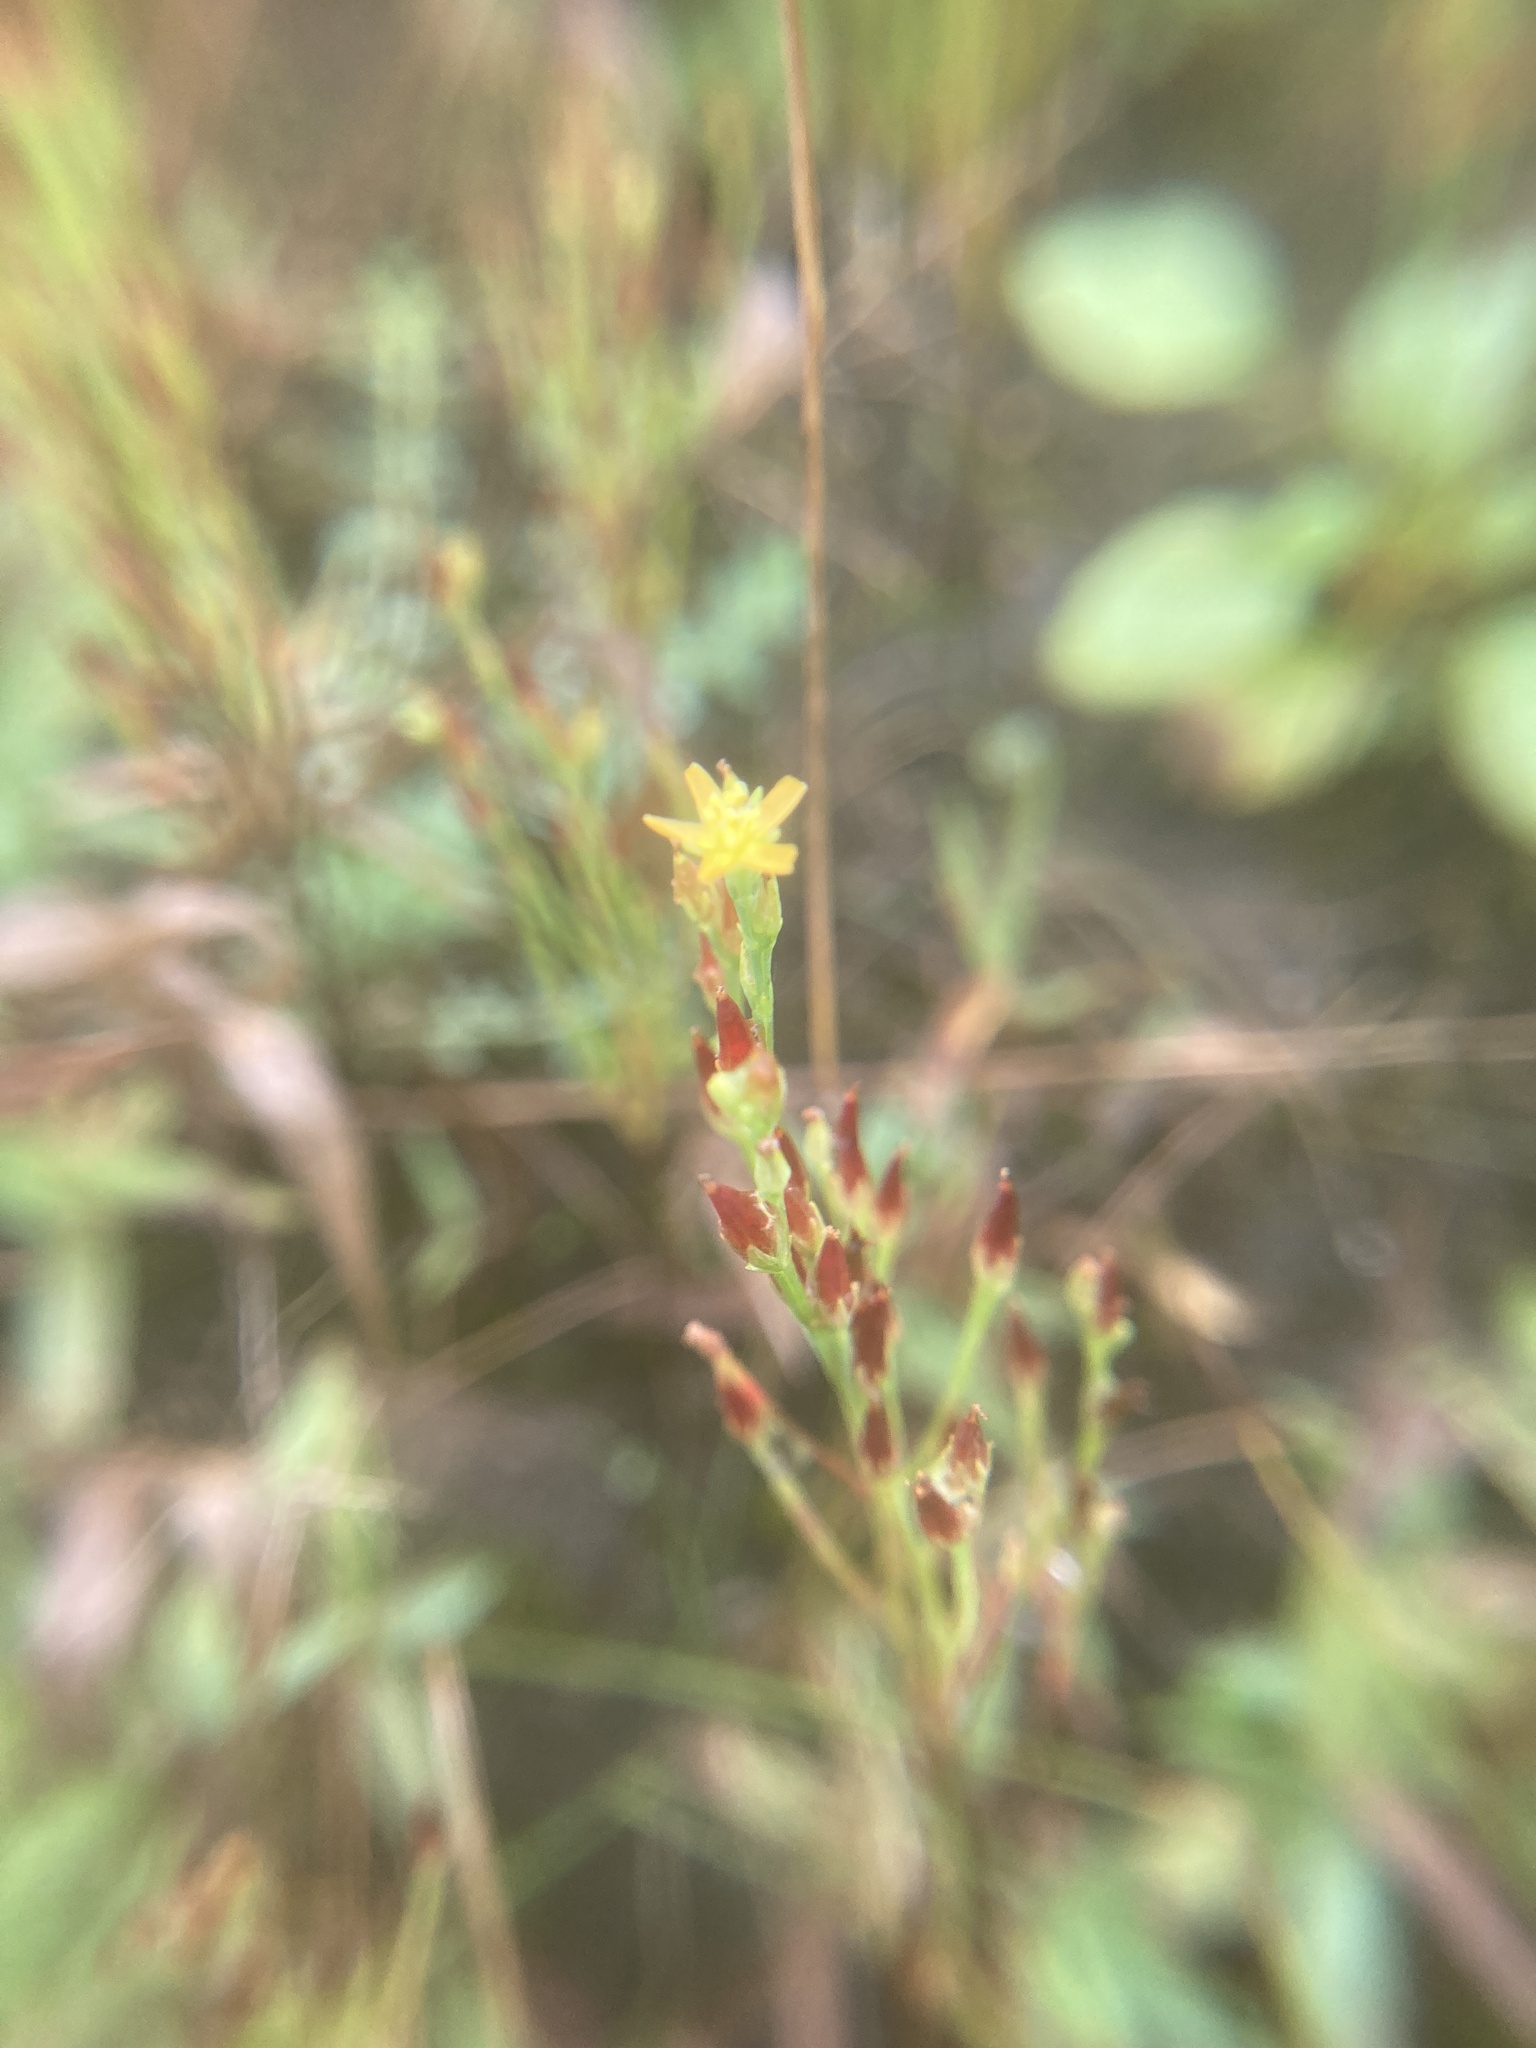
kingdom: Plantae
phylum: Tracheophyta
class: Magnoliopsida
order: Malpighiales
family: Hypericaceae
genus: Hypericum
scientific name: Hypericum gentianoides
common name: Gentian-leaved st. john's-wort
